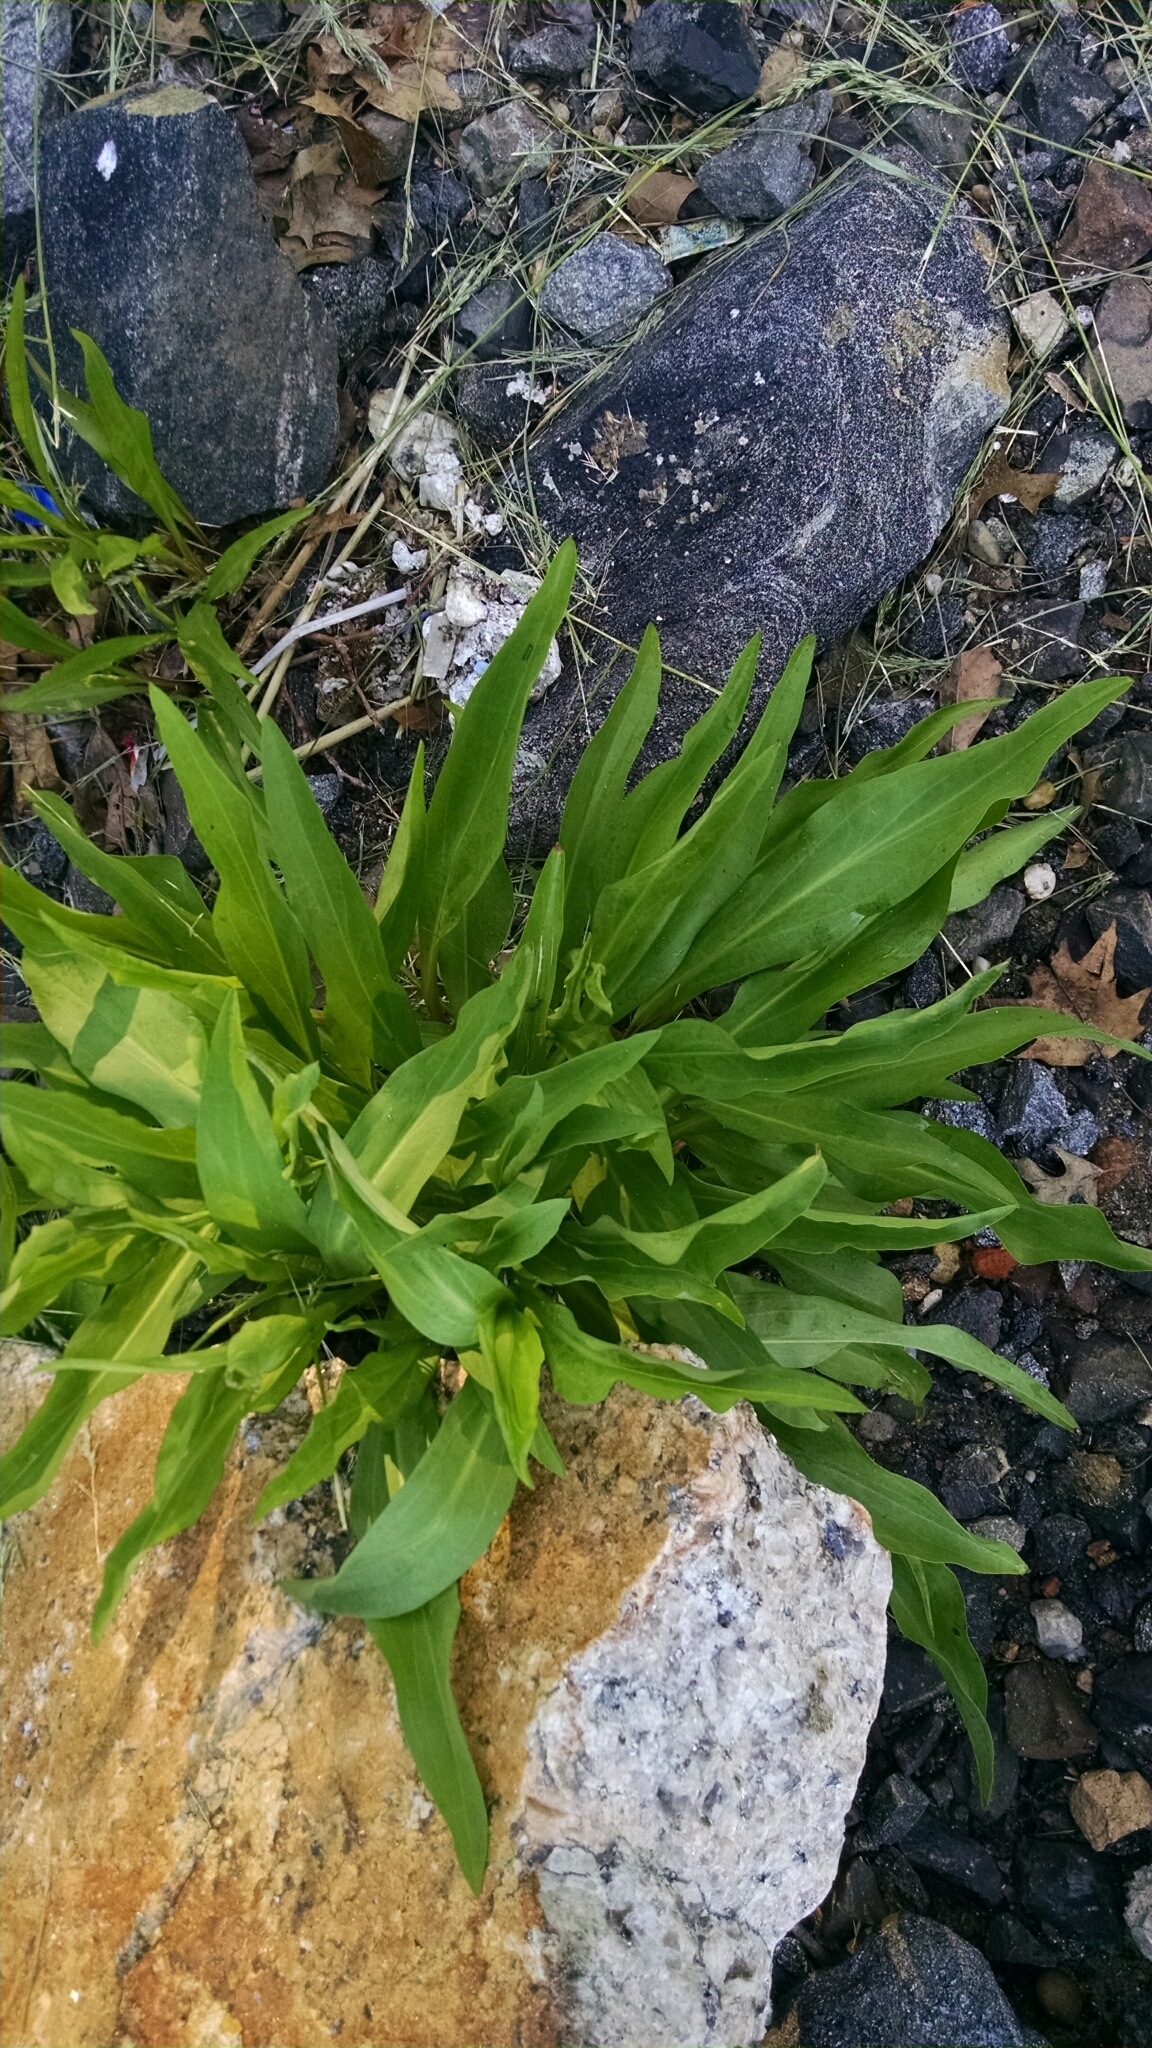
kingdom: Plantae
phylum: Tracheophyta
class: Magnoliopsida
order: Asterales
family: Asteraceae
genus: Solidago
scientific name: Solidago sempervirens
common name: Salt-marsh goldenrod
